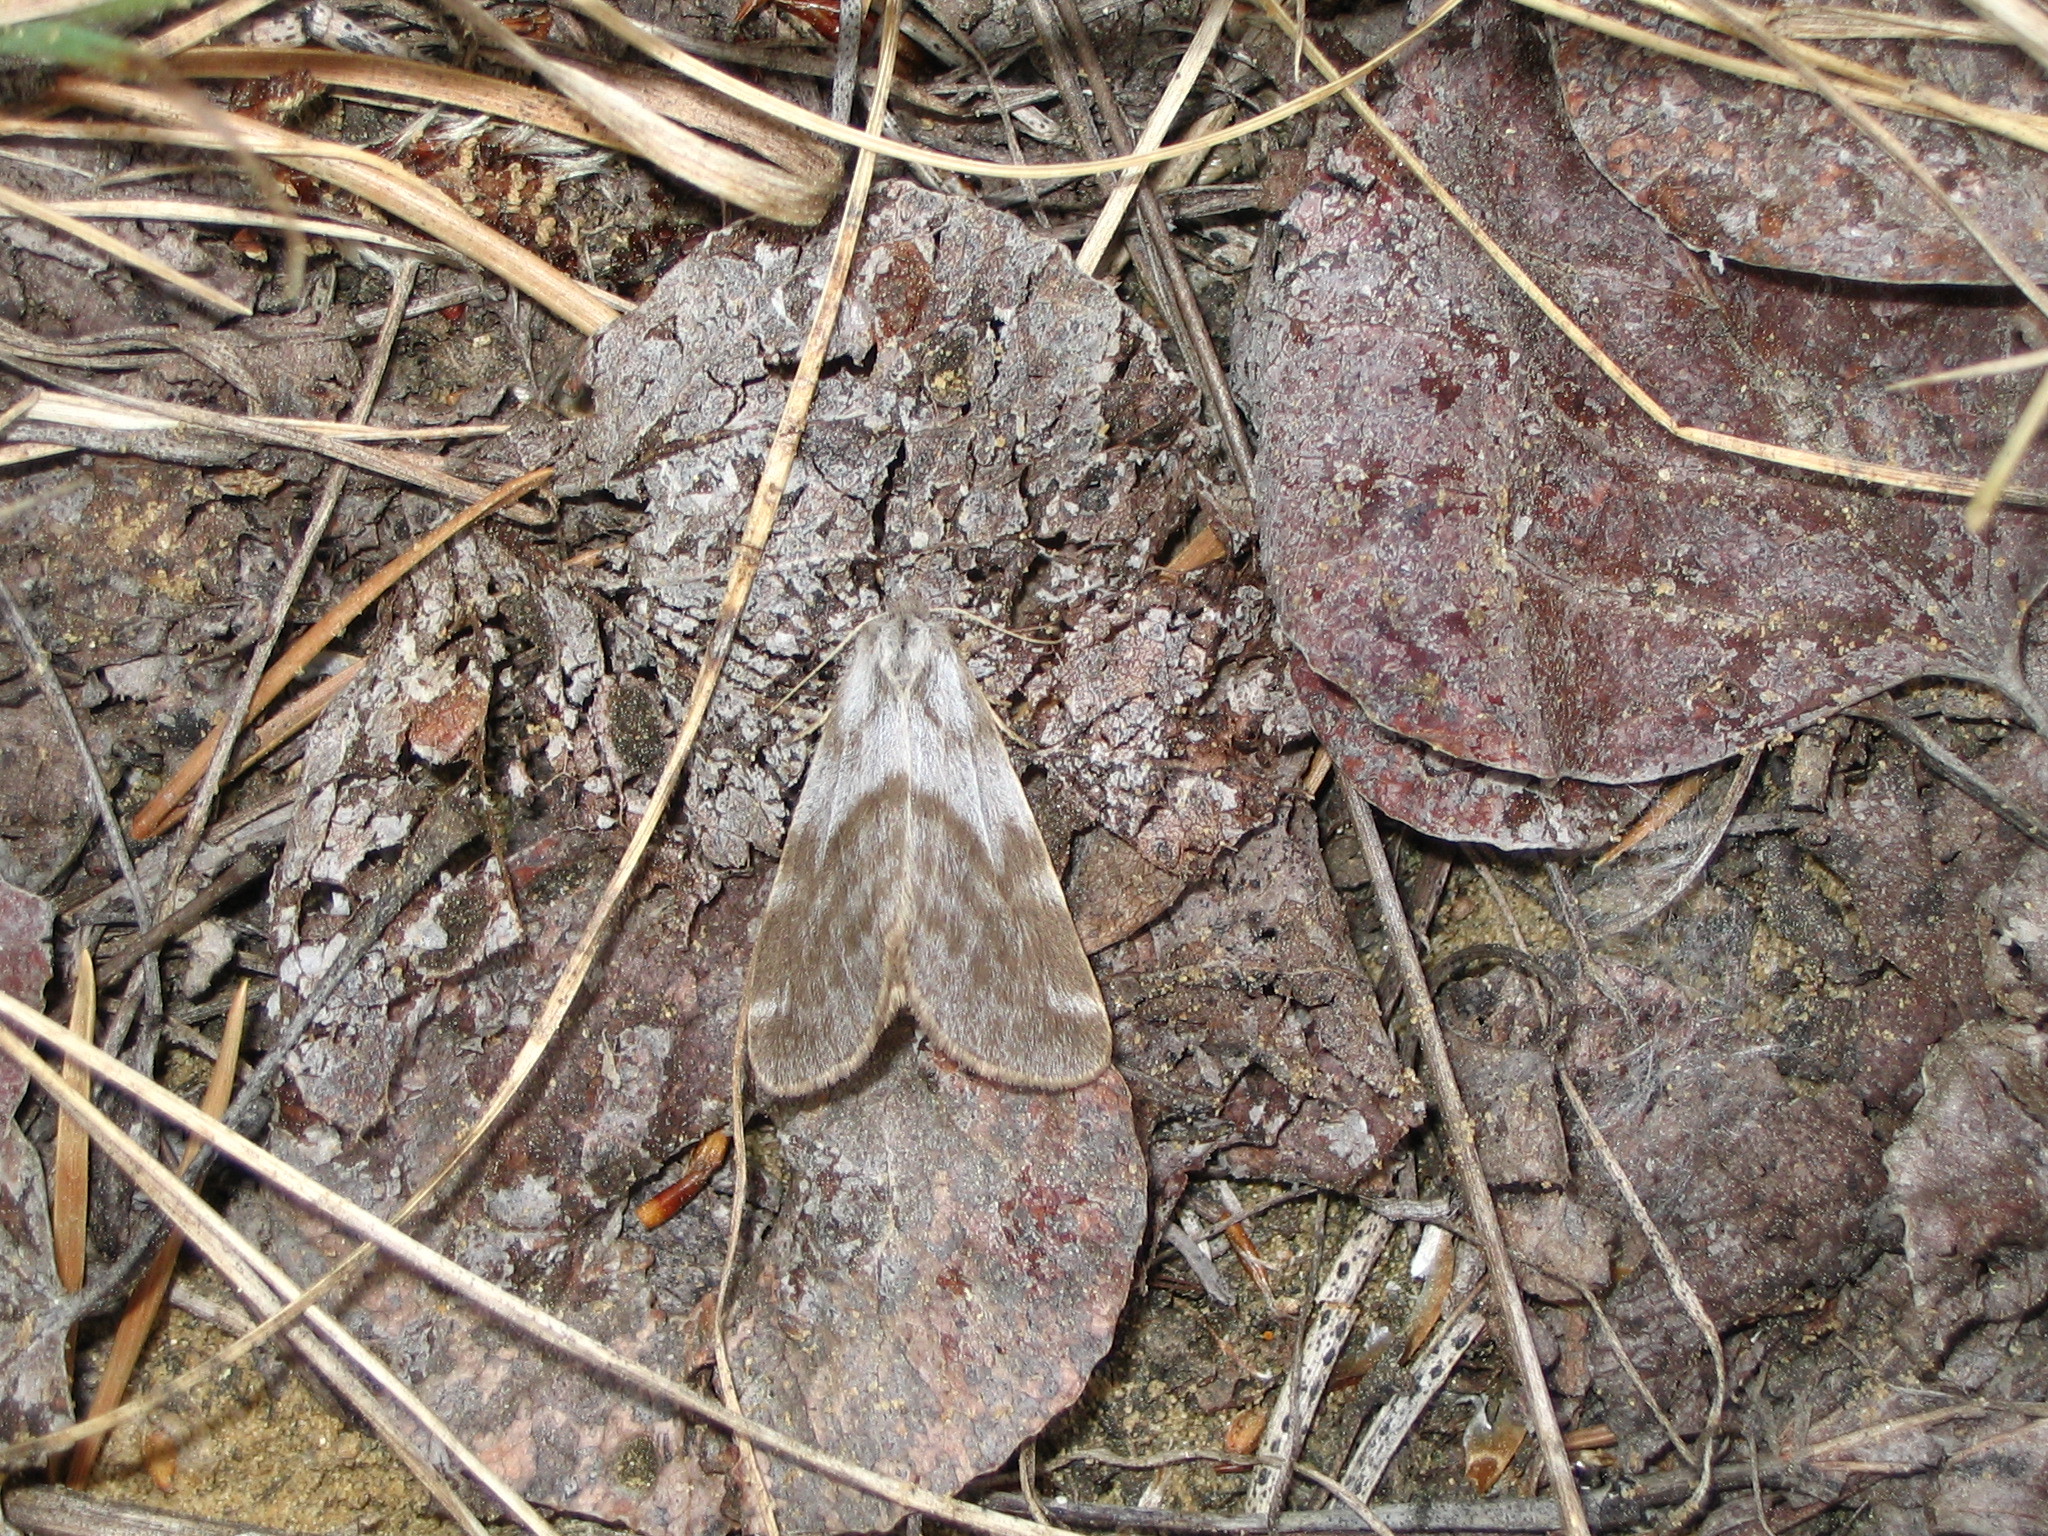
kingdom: Animalia
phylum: Arthropoda
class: Insecta
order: Lepidoptera
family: Erebidae
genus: Dodia
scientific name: Dodia tarandus
